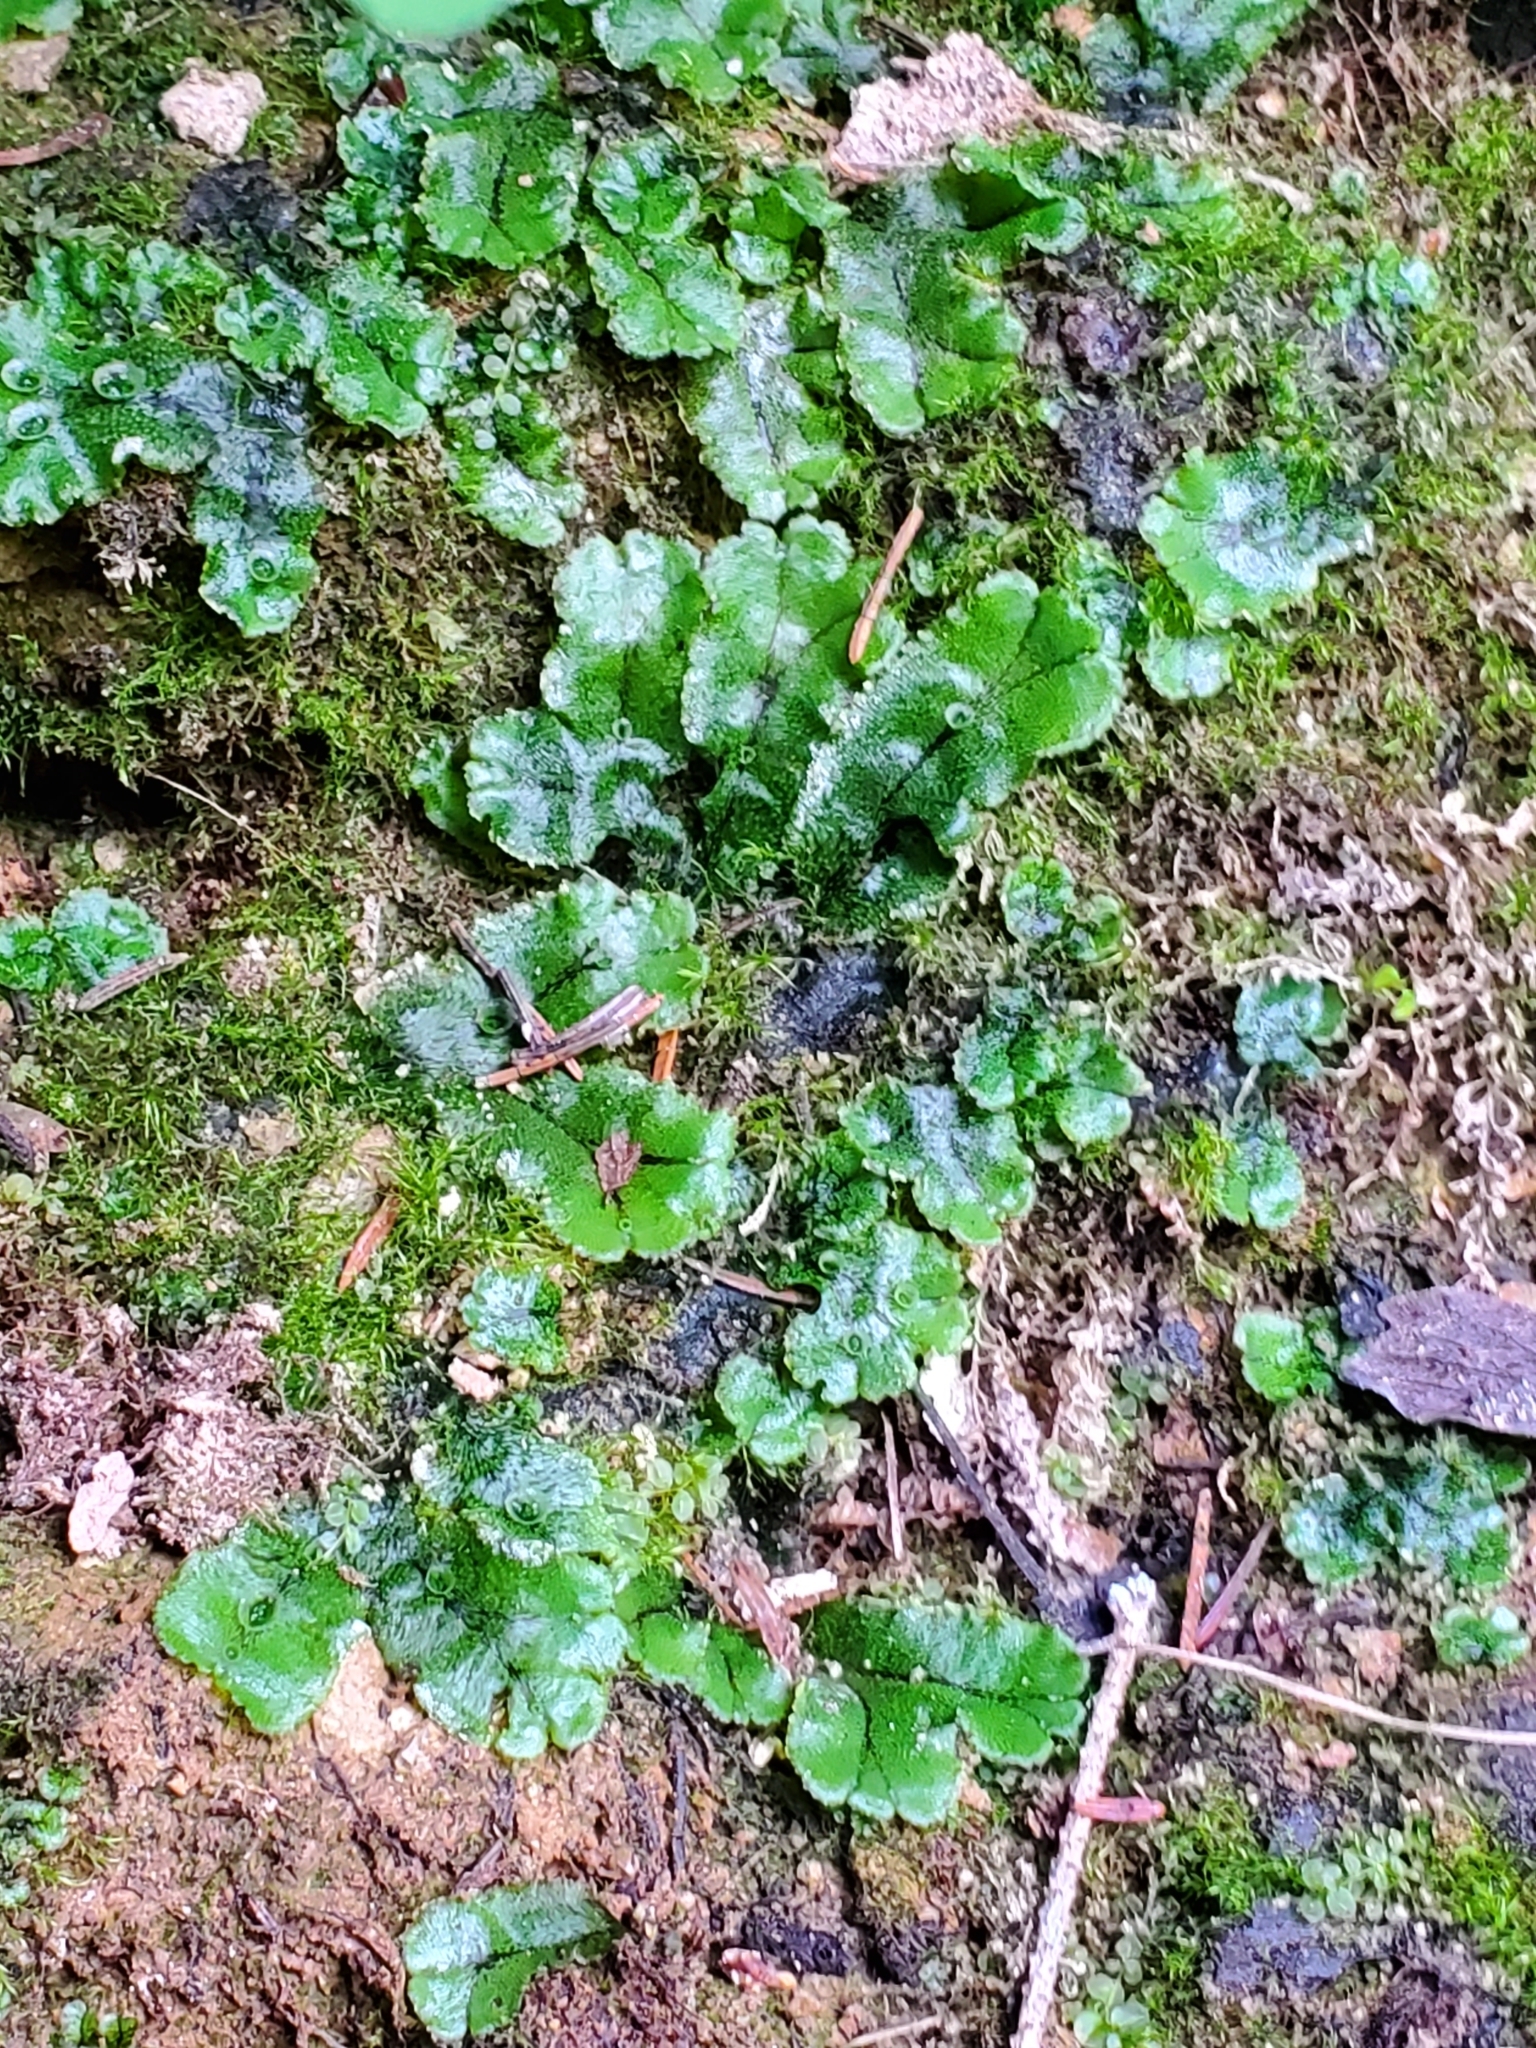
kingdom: Plantae
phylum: Marchantiophyta
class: Marchantiopsida
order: Marchantiales
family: Marchantiaceae
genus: Marchantia
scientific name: Marchantia polymorpha
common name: Common liverwort
